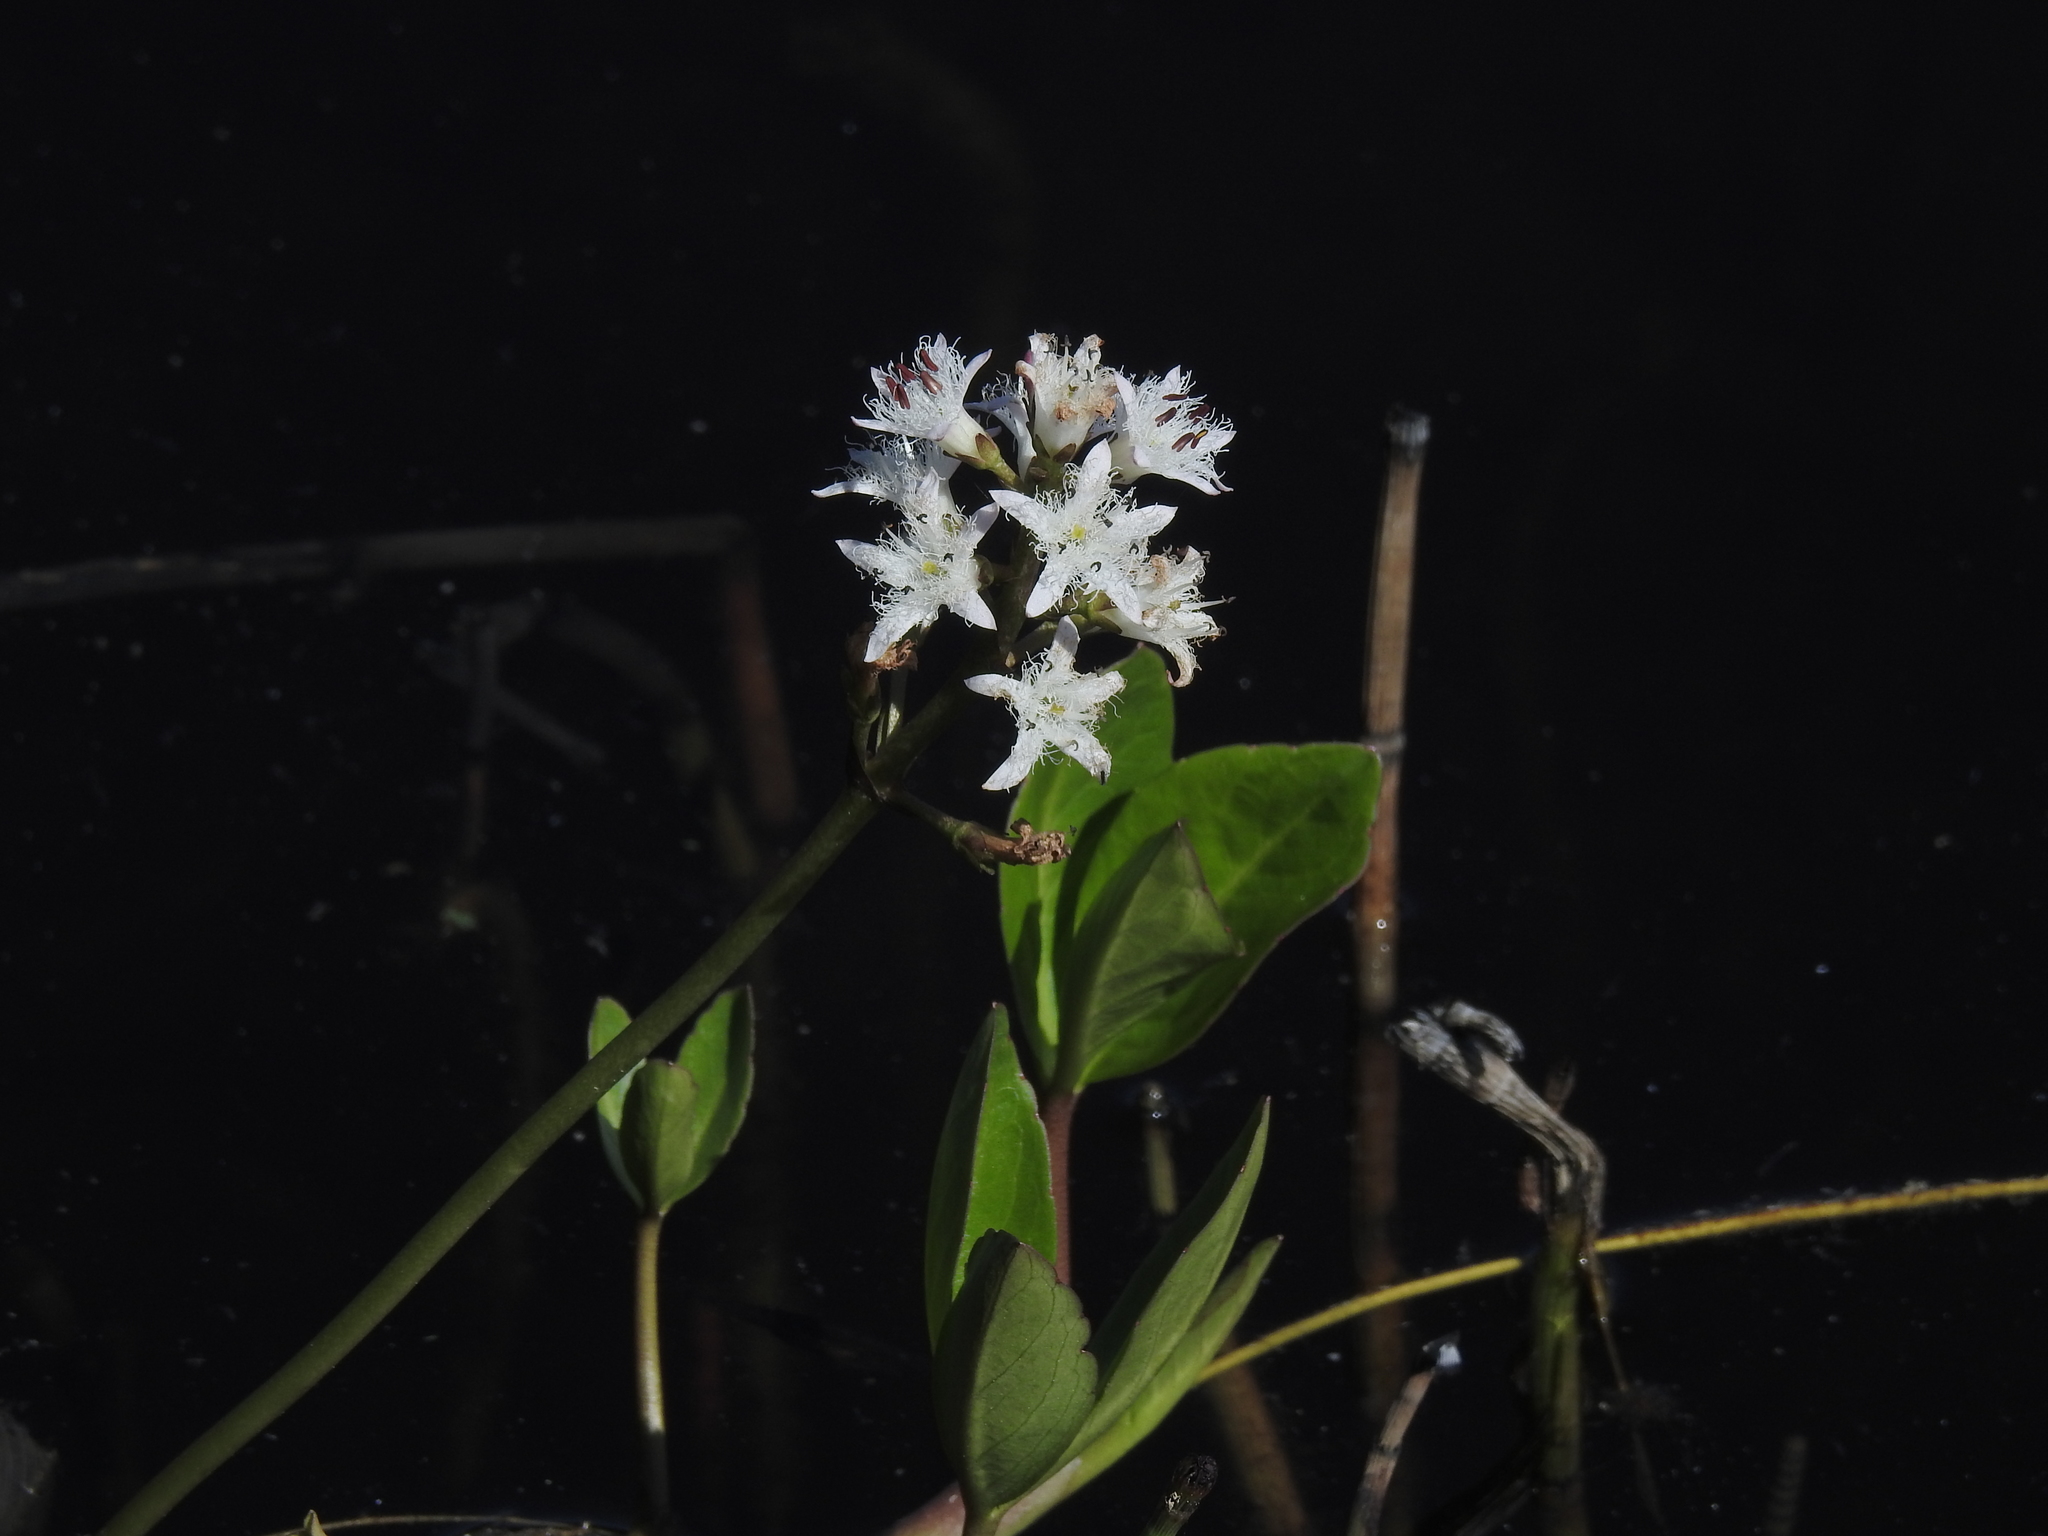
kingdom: Plantae
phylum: Tracheophyta
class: Magnoliopsida
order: Asterales
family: Menyanthaceae
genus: Menyanthes
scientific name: Menyanthes trifoliata
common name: Bogbean
